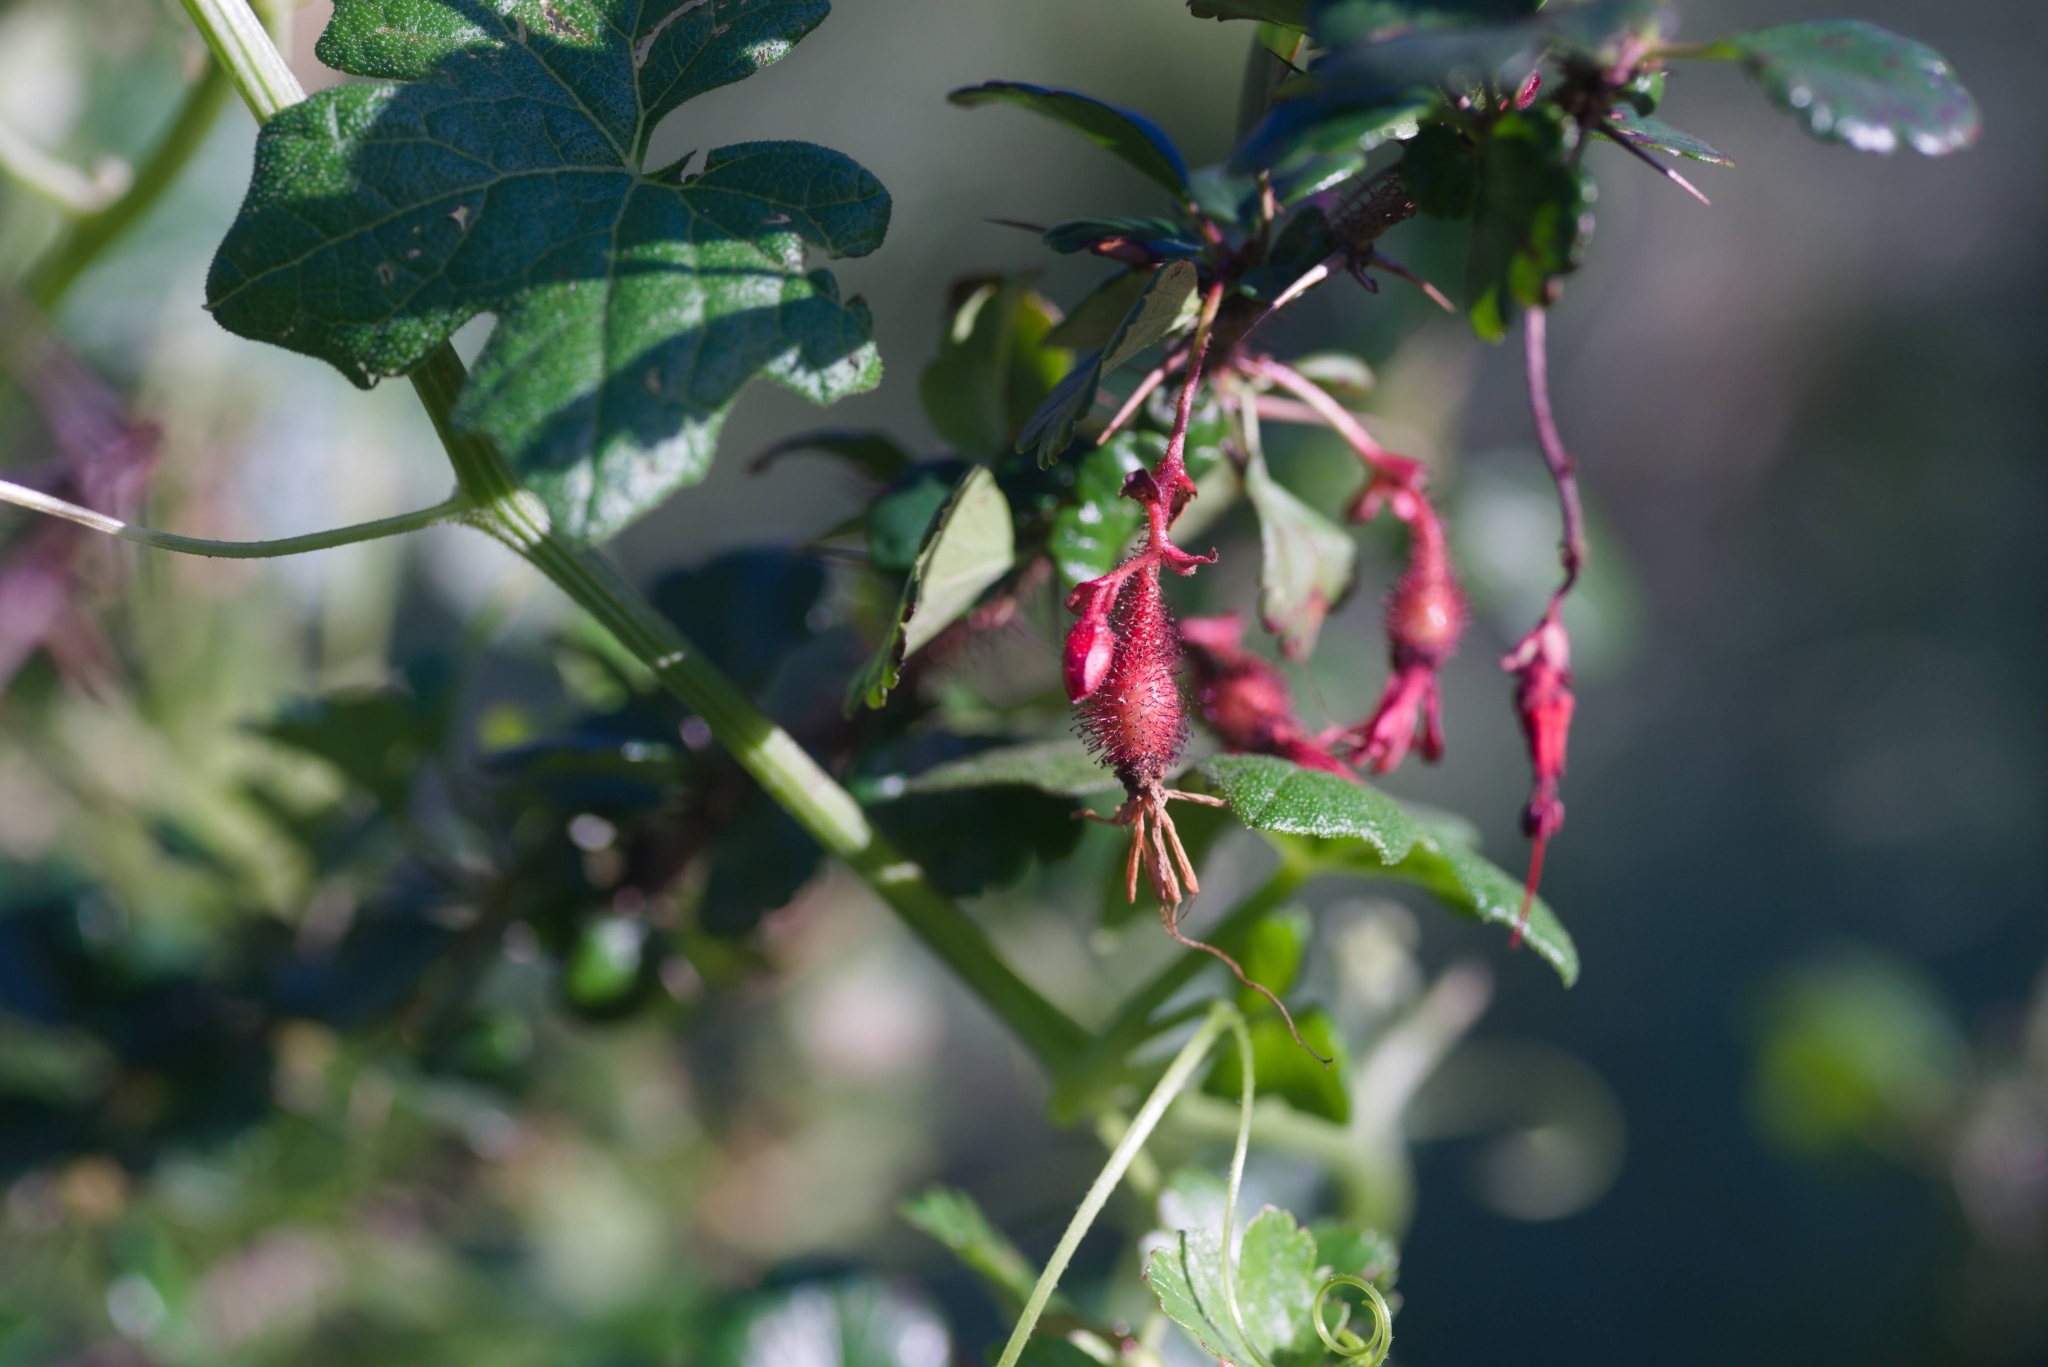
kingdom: Plantae
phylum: Tracheophyta
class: Magnoliopsida
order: Saxifragales
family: Grossulariaceae
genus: Ribes
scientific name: Ribes speciosum
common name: Fuchsia-flower gooseberry
